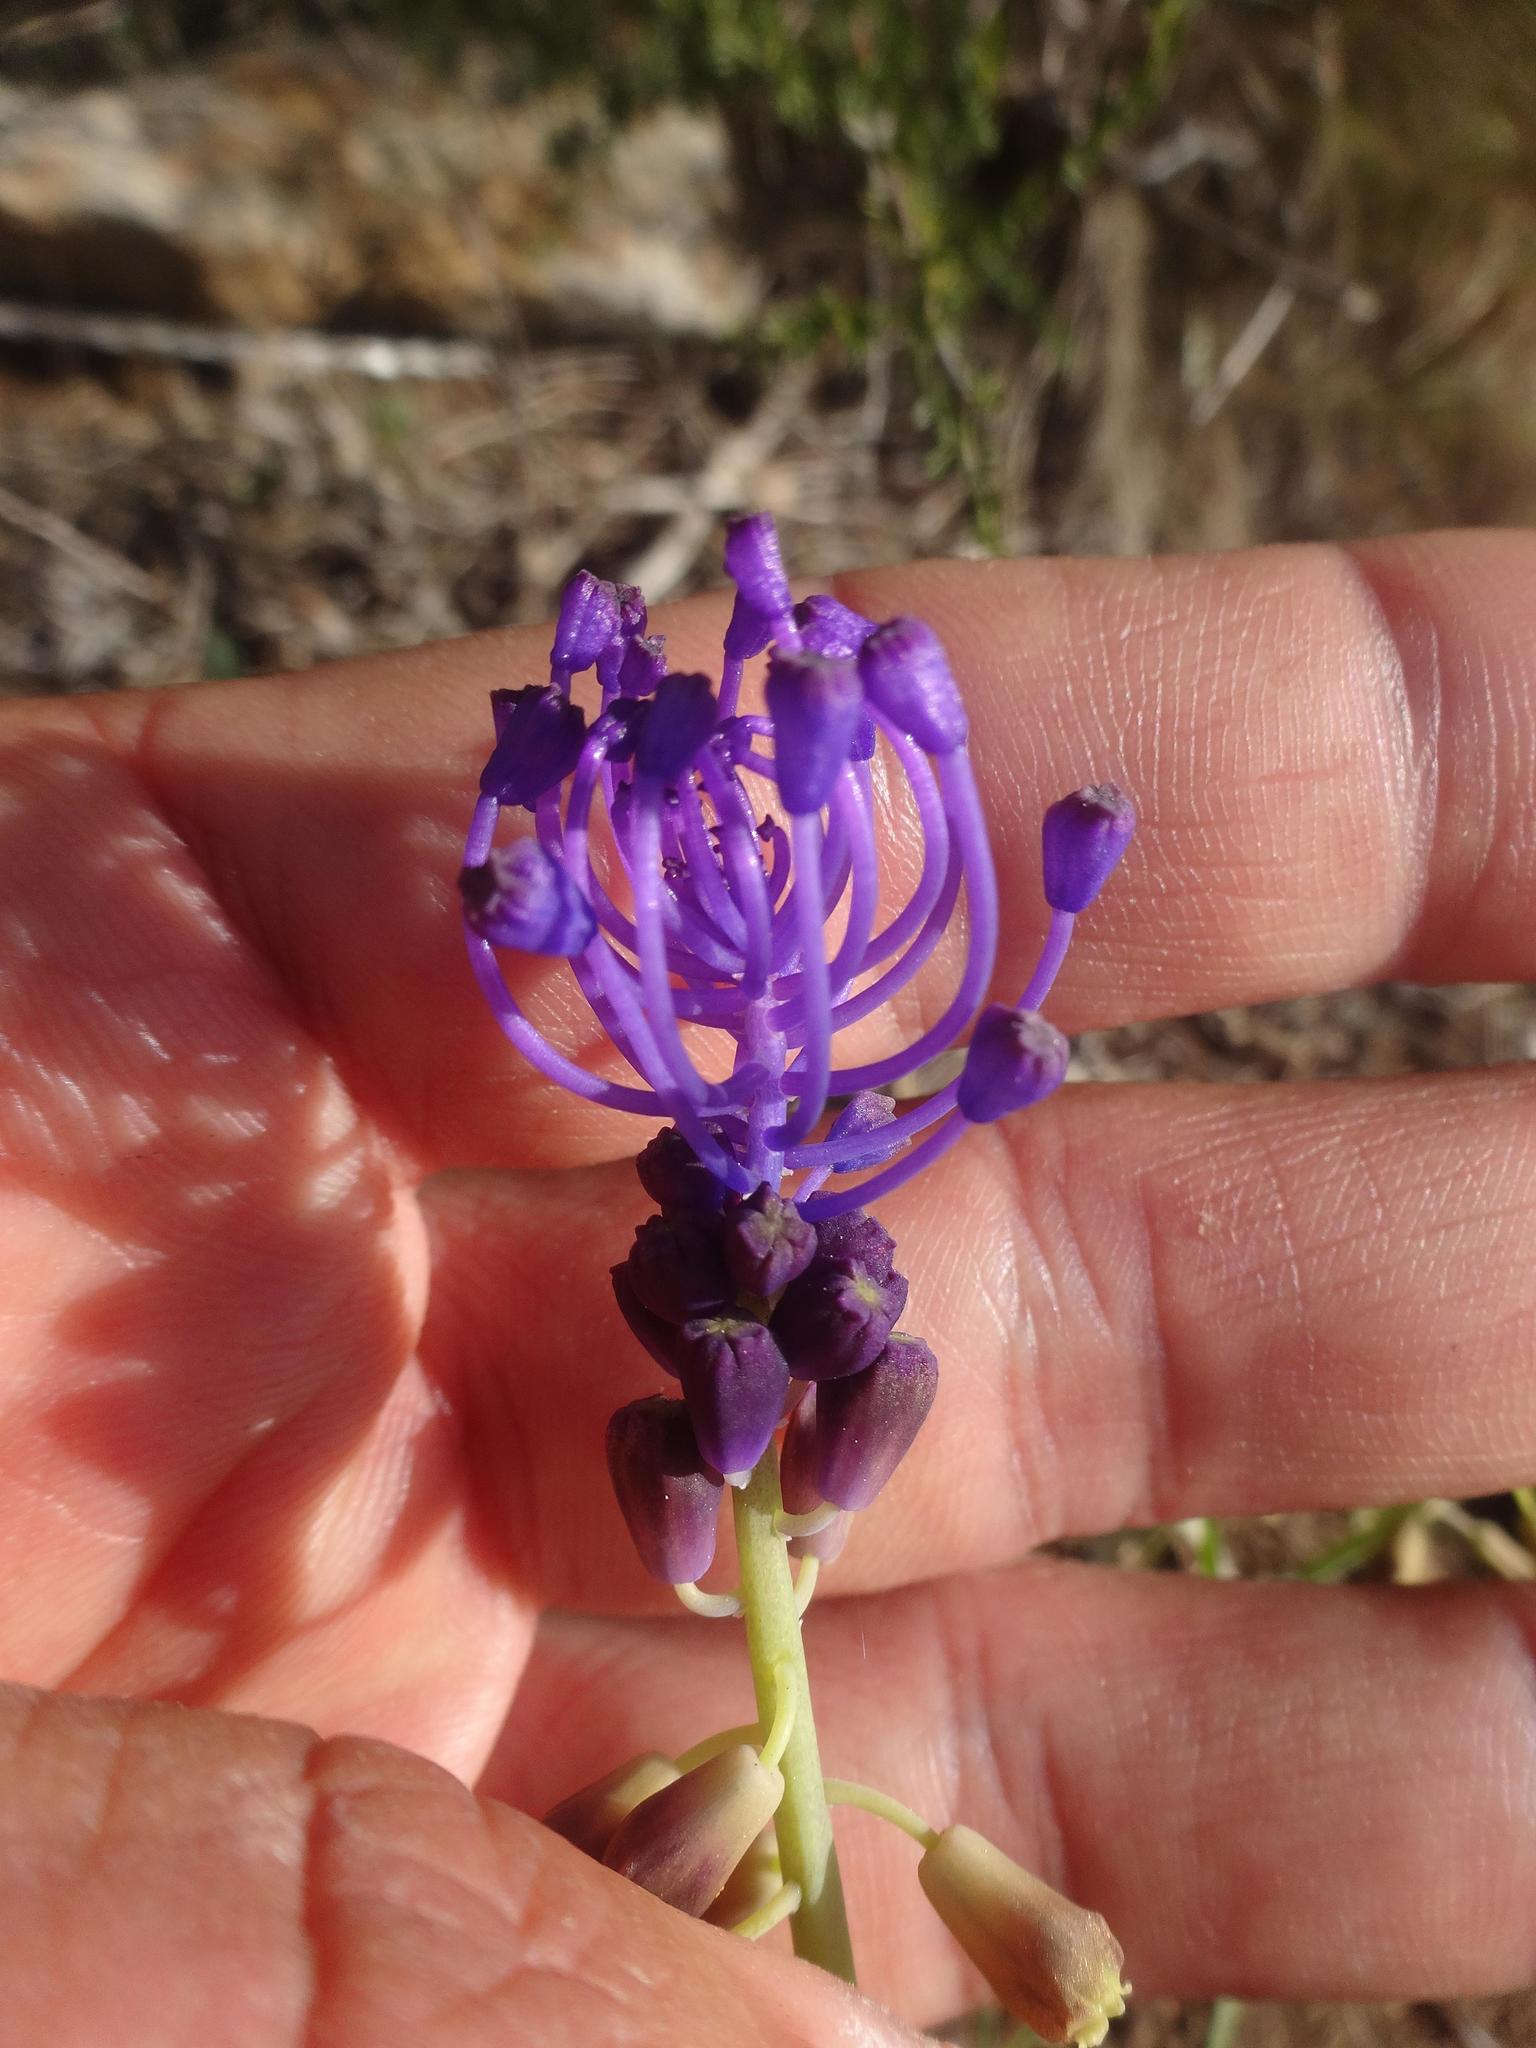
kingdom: Plantae
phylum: Tracheophyta
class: Liliopsida
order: Asparagales
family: Asparagaceae
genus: Muscari
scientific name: Muscari comosum
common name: Tassel hyacinth
